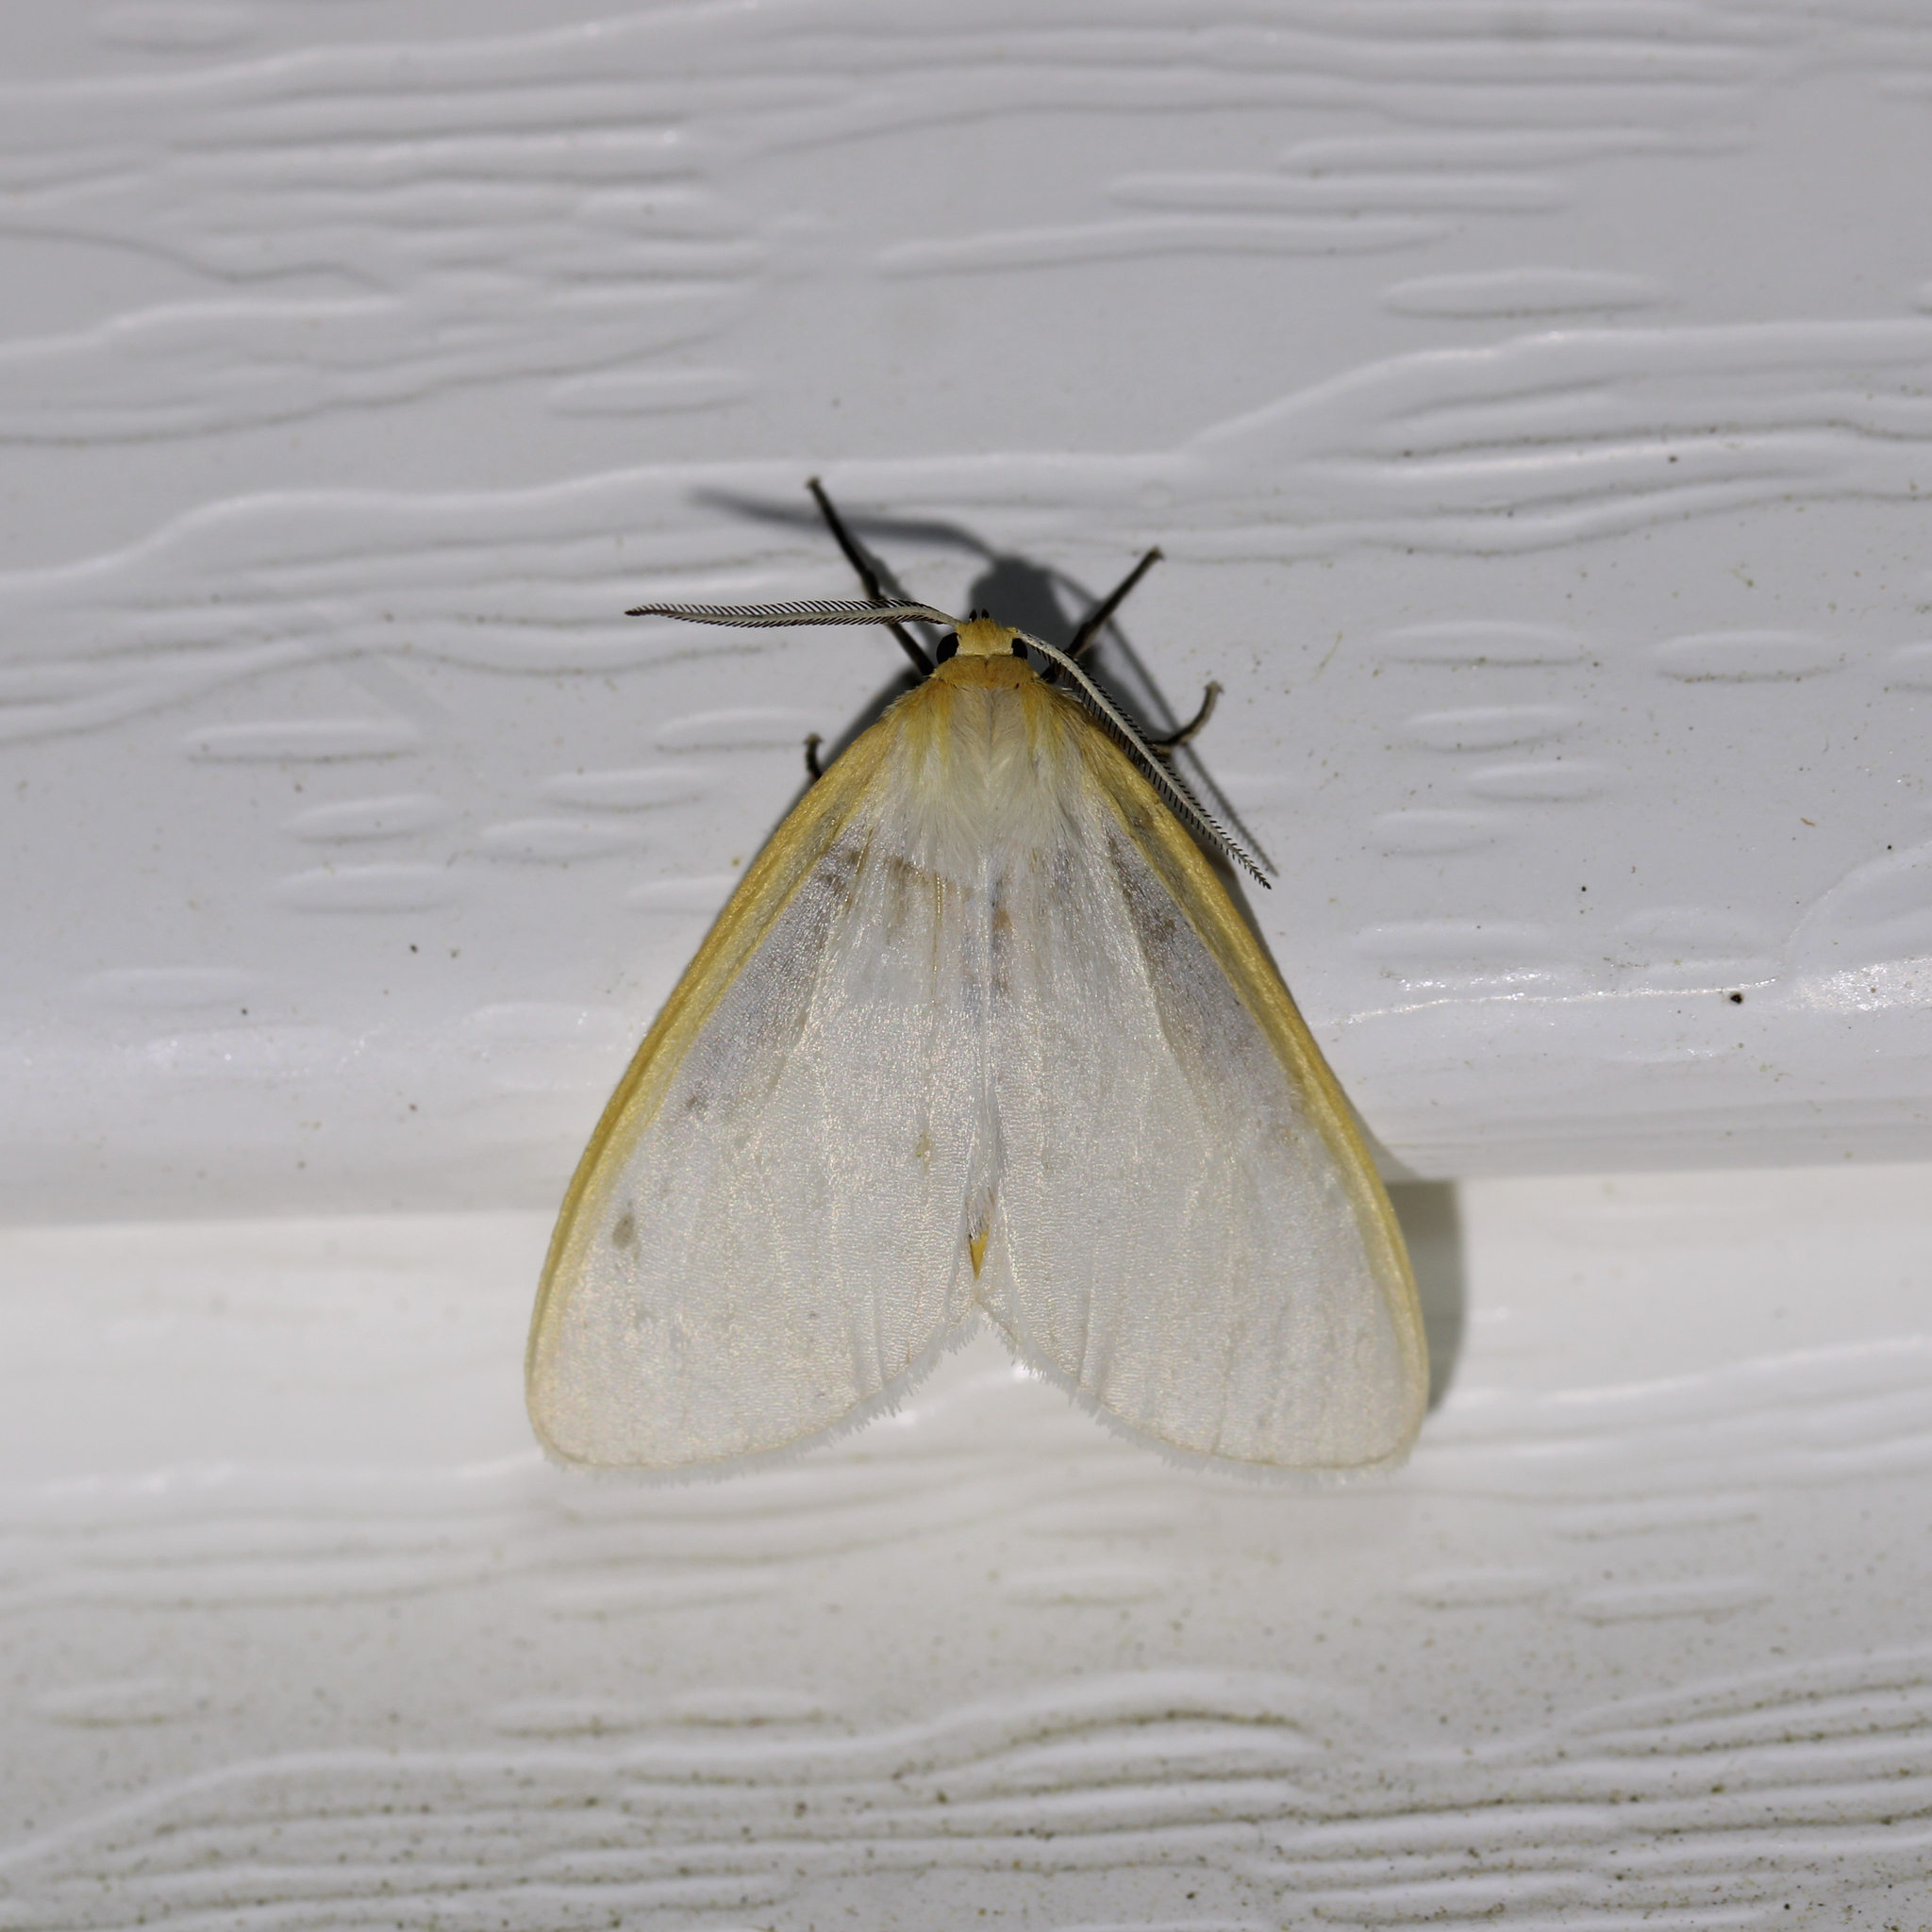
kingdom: Animalia
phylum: Arthropoda
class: Insecta
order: Lepidoptera
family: Erebidae
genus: Cycnia
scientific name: Cycnia tenera
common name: Delicate cycnia moth
